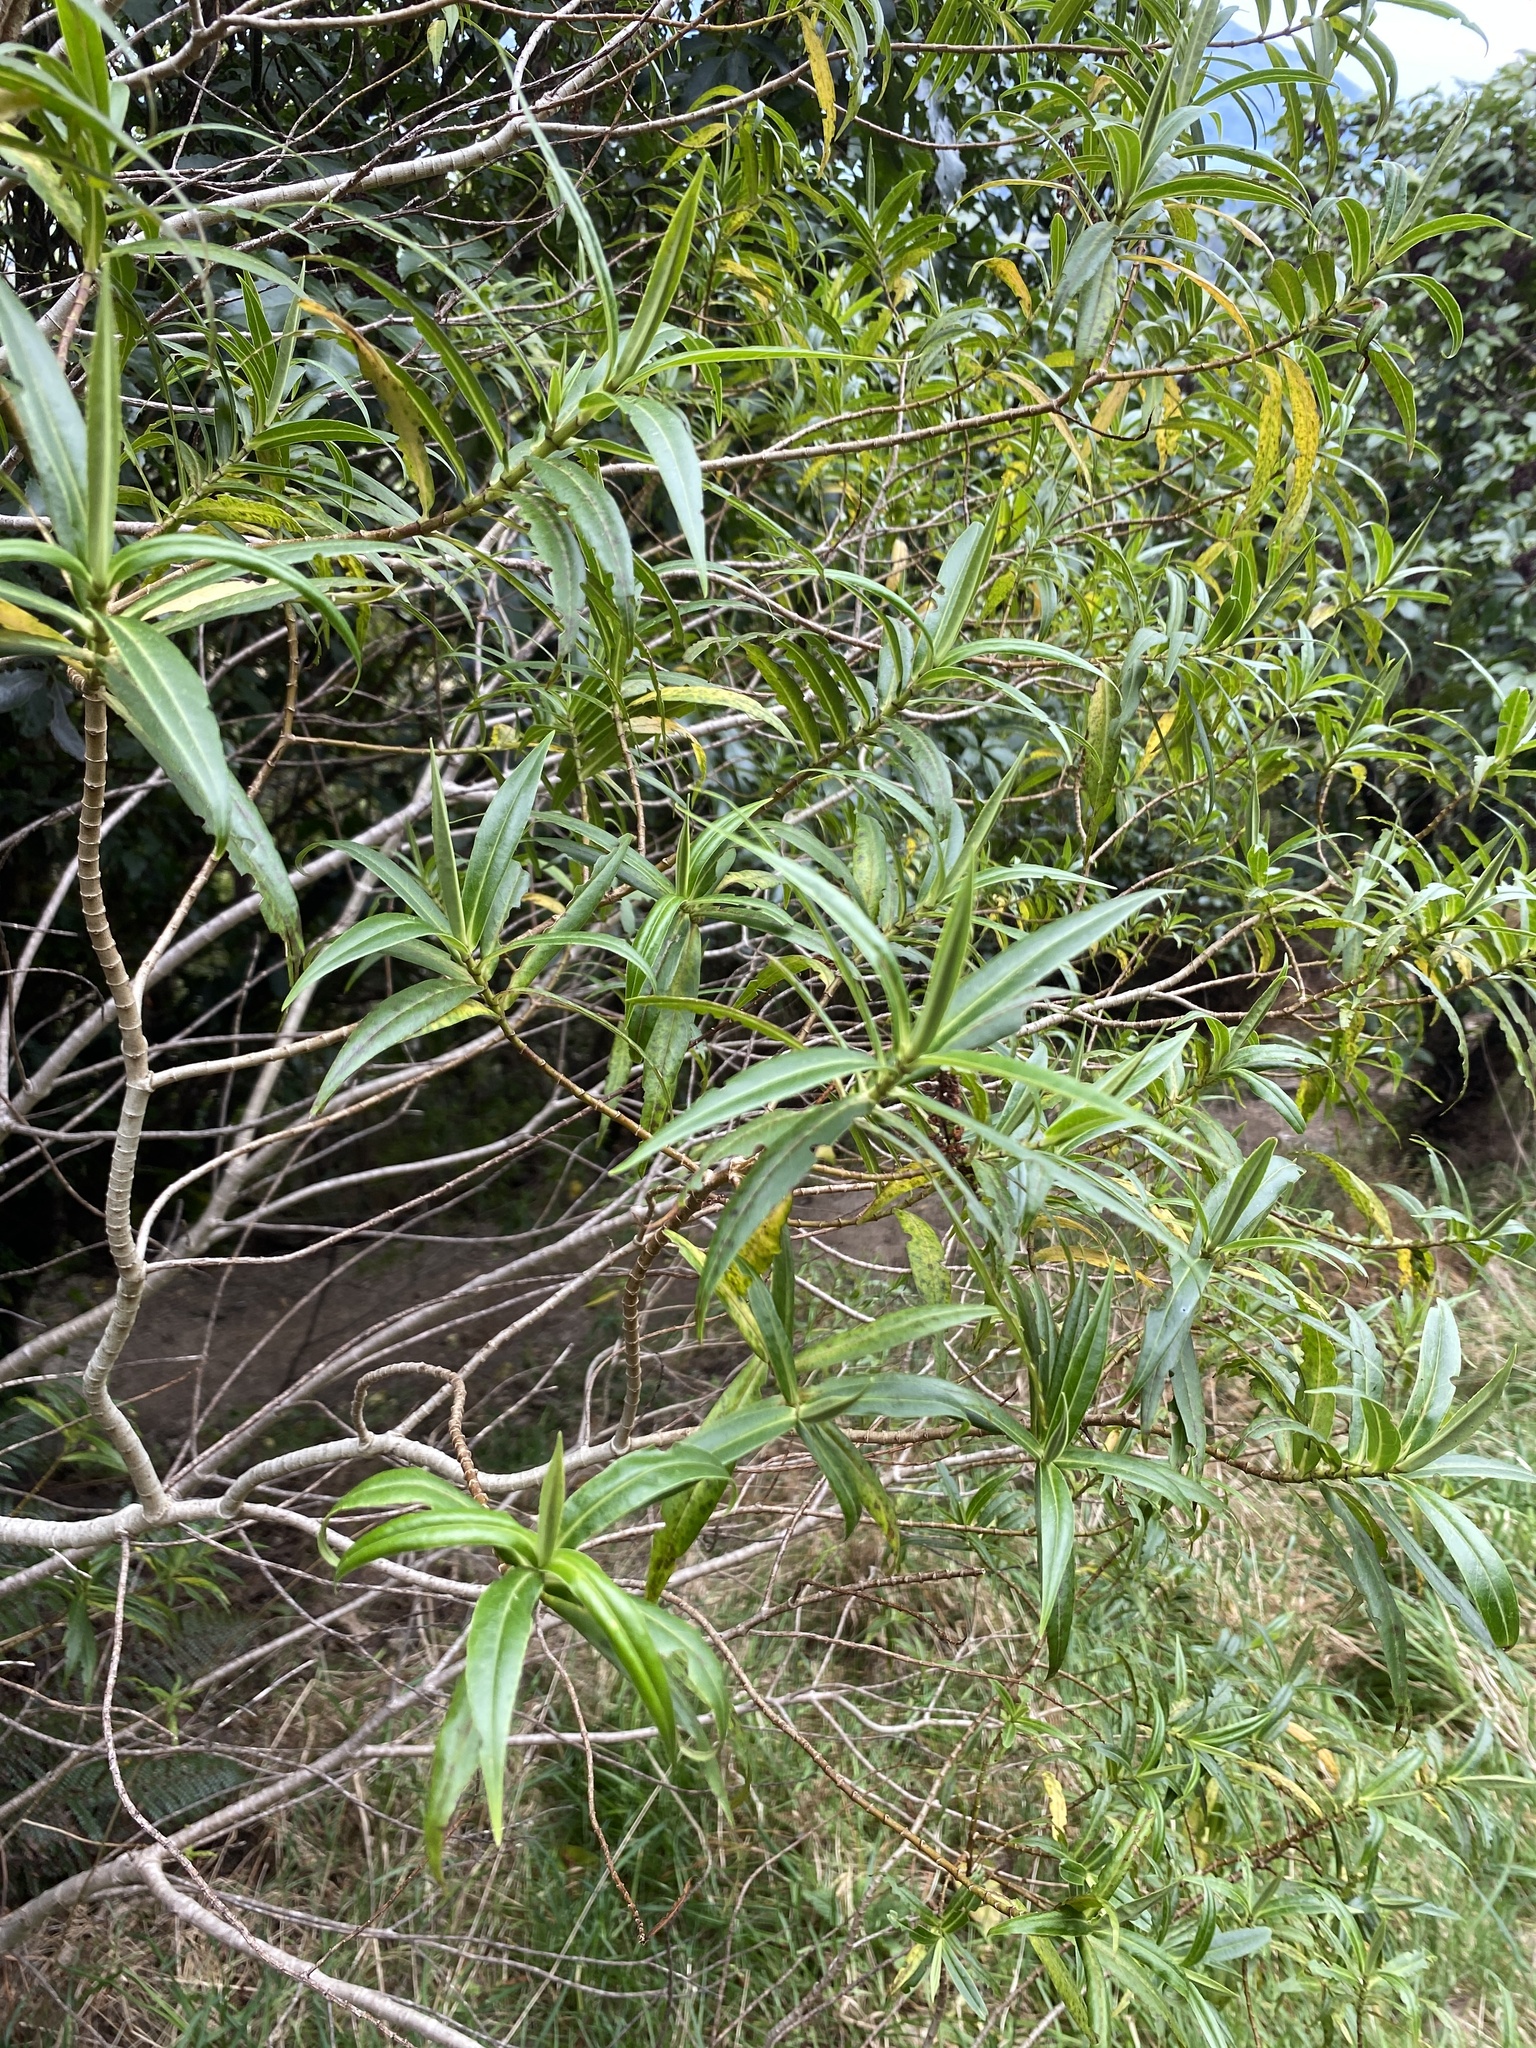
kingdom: Plantae
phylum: Tracheophyta
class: Magnoliopsida
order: Lamiales
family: Plantaginaceae
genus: Veronica
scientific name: Veronica salicifolia
